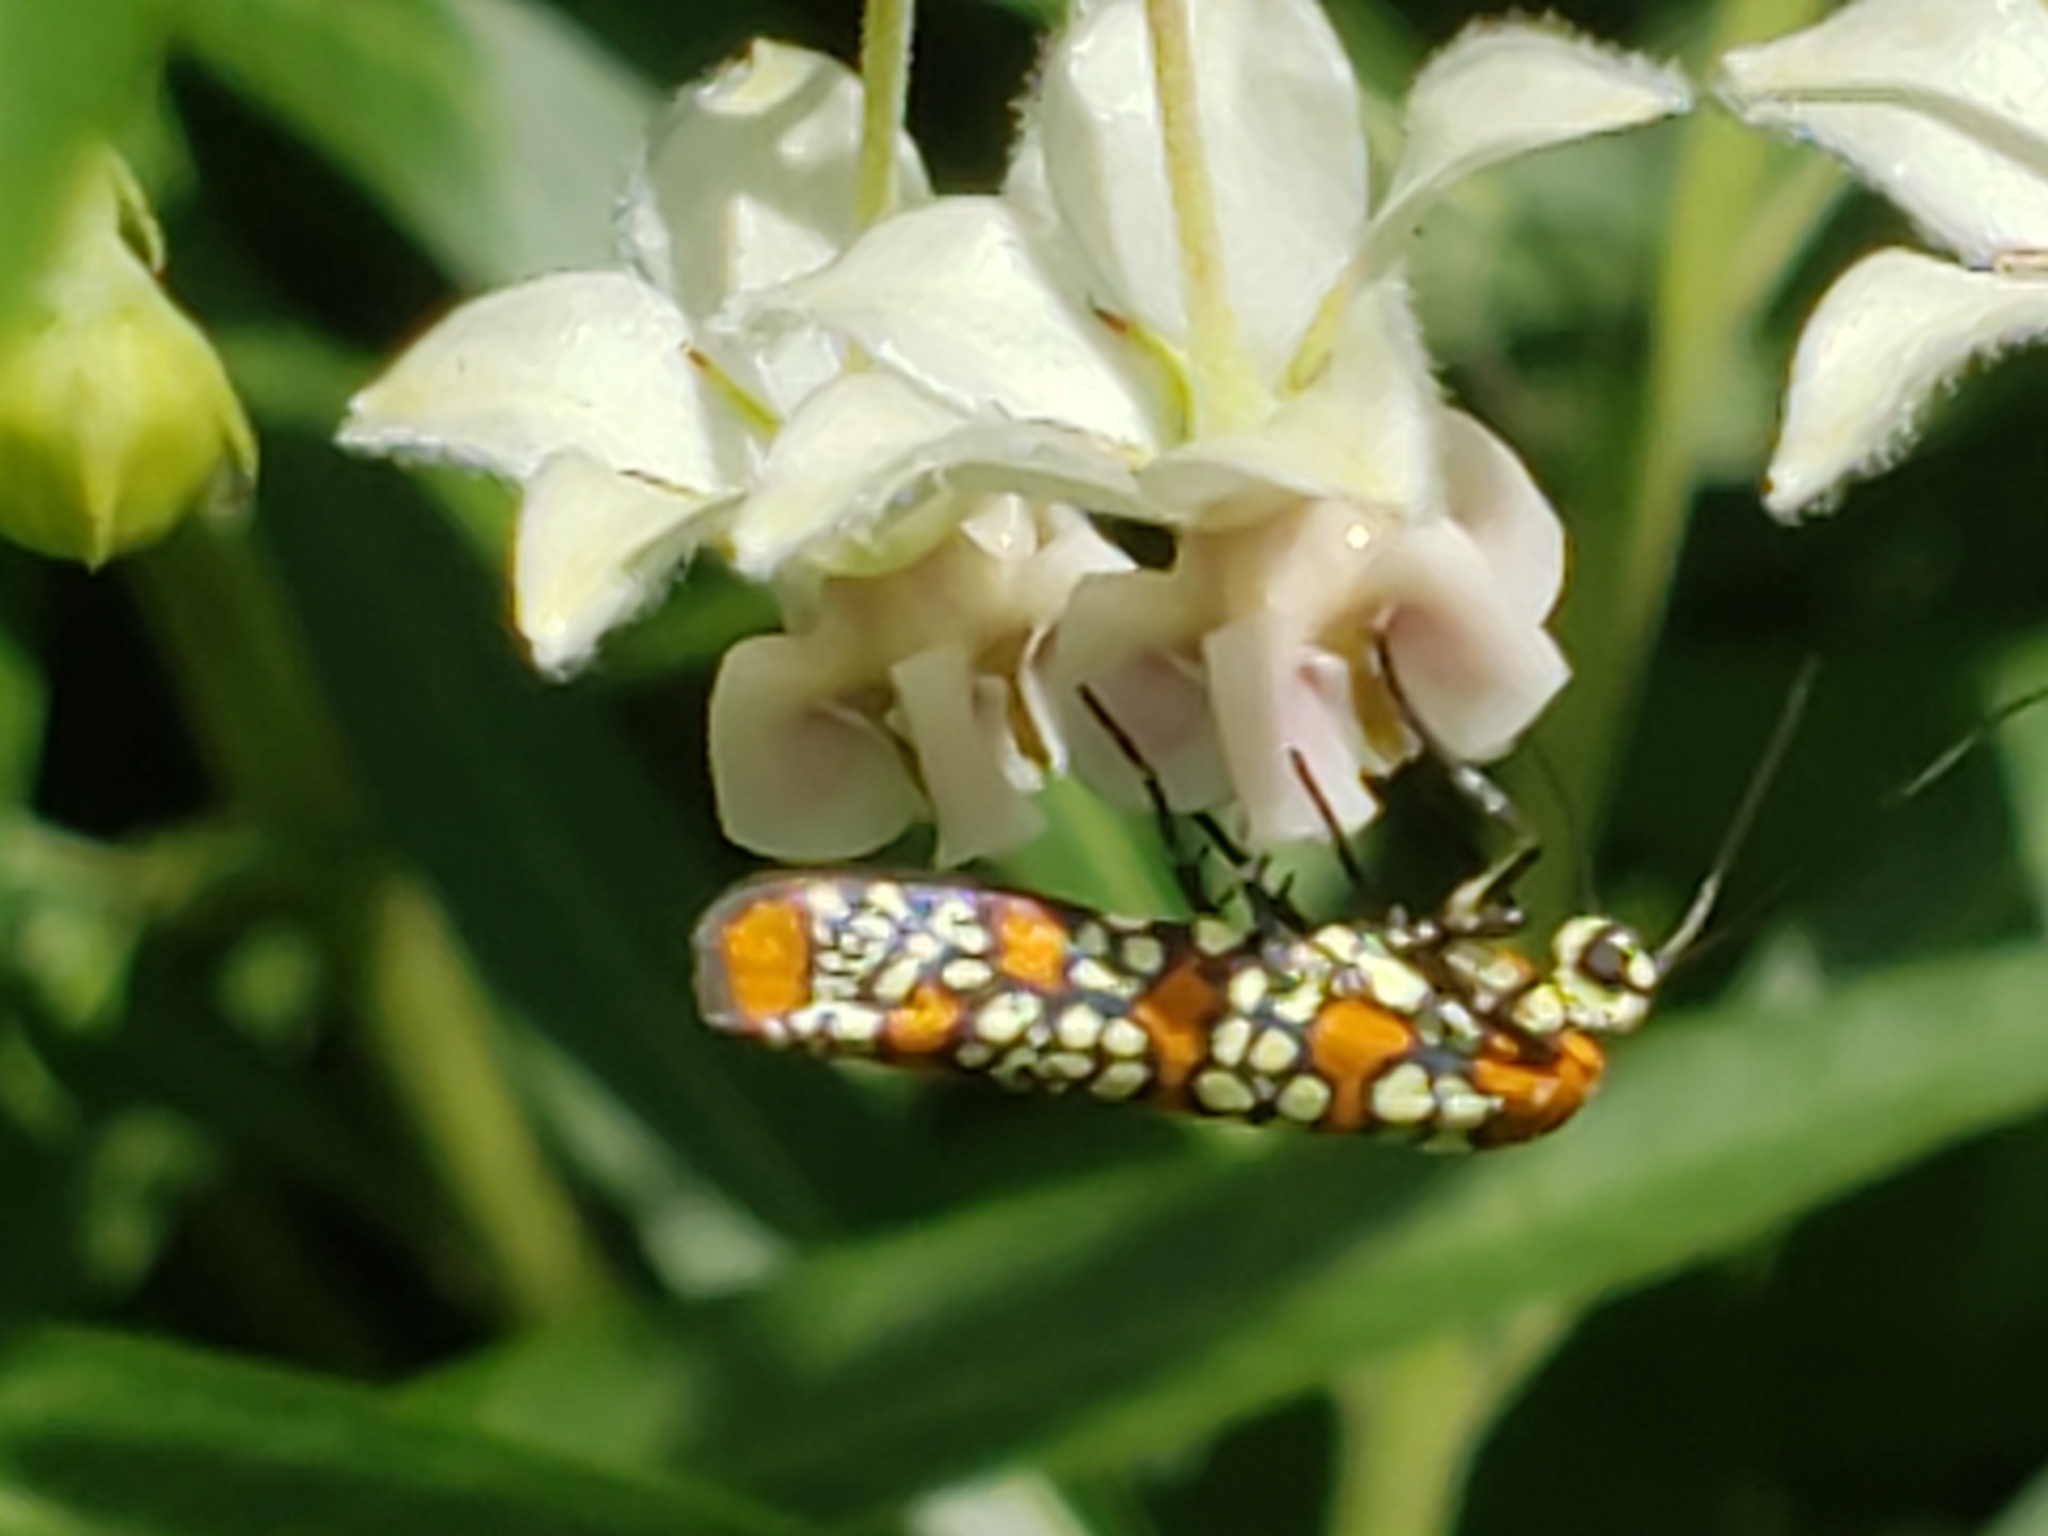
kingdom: Animalia
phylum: Arthropoda
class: Insecta
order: Lepidoptera
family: Attevidae
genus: Atteva
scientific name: Atteva punctella
